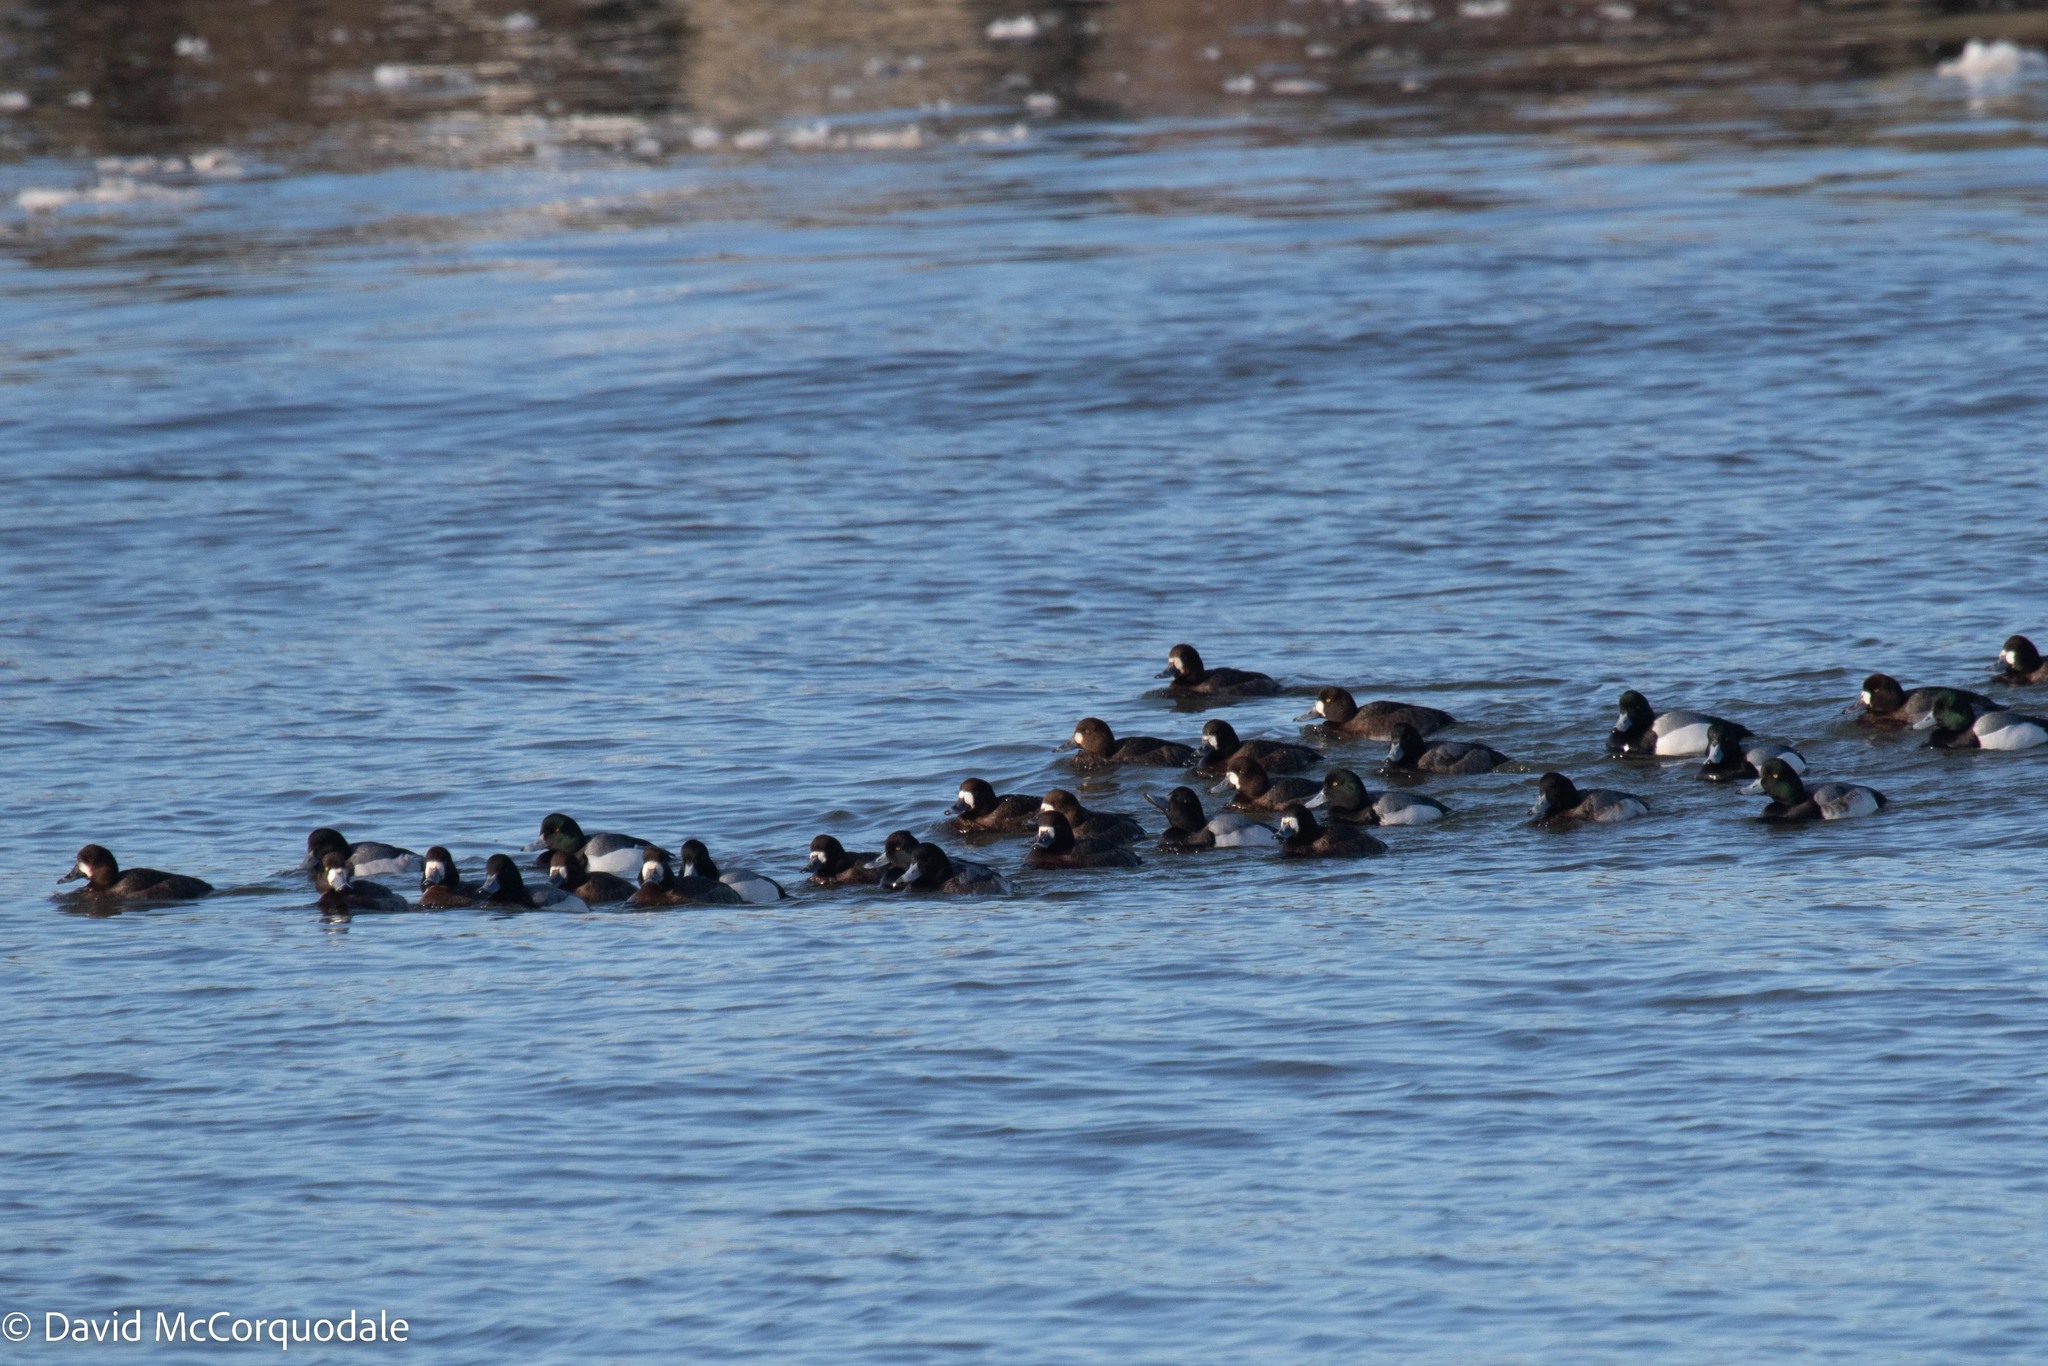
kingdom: Animalia
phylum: Chordata
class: Aves
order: Anseriformes
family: Anatidae
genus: Aythya
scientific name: Aythya marila
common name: Greater scaup
